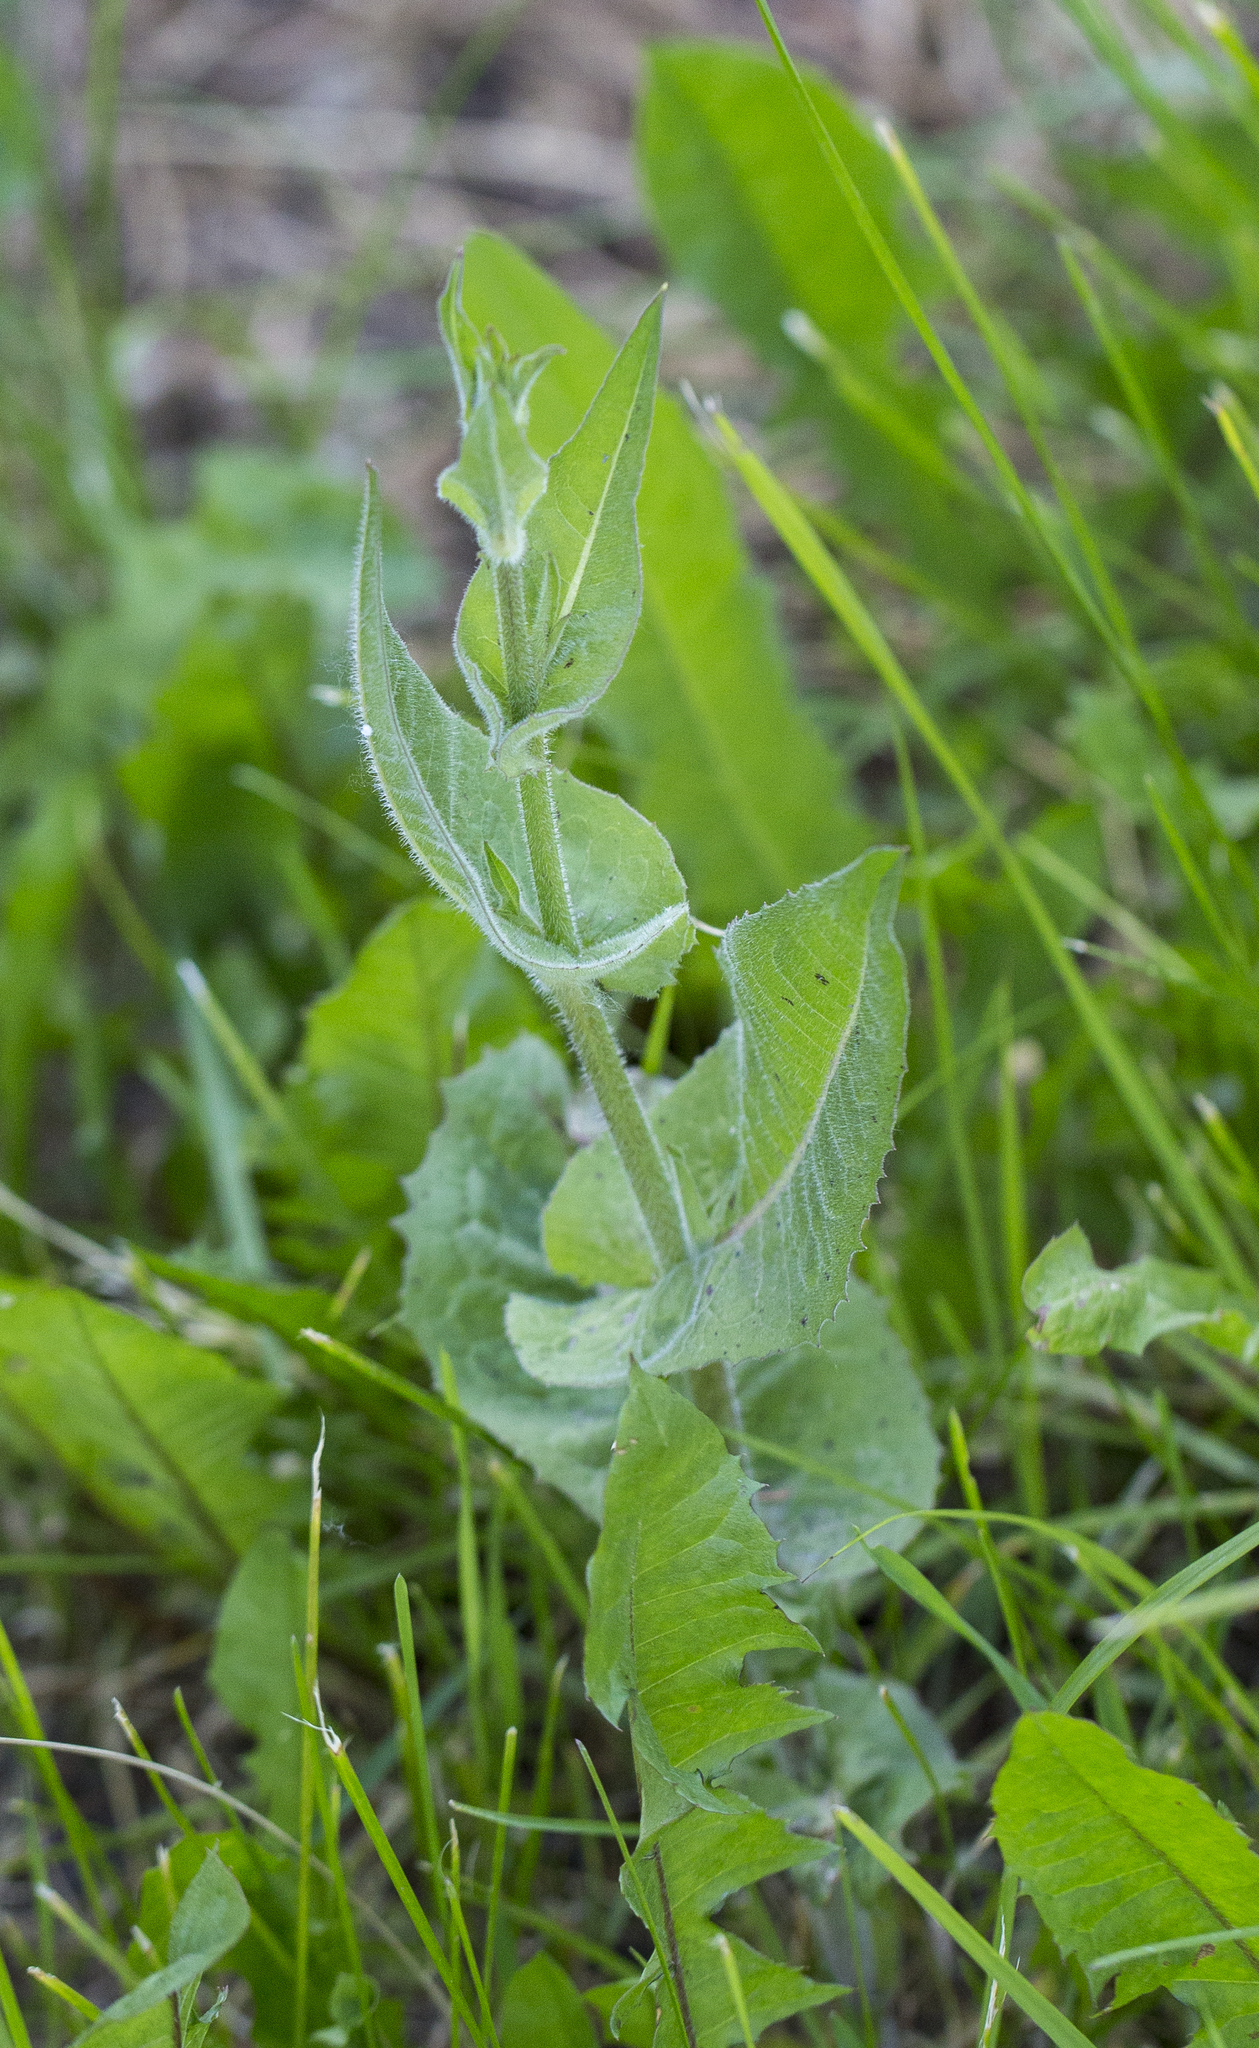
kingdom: Plantae
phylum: Tracheophyta
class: Magnoliopsida
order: Asterales
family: Asteraceae
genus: Cichorium
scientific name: Cichorium intybus
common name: Chicory
